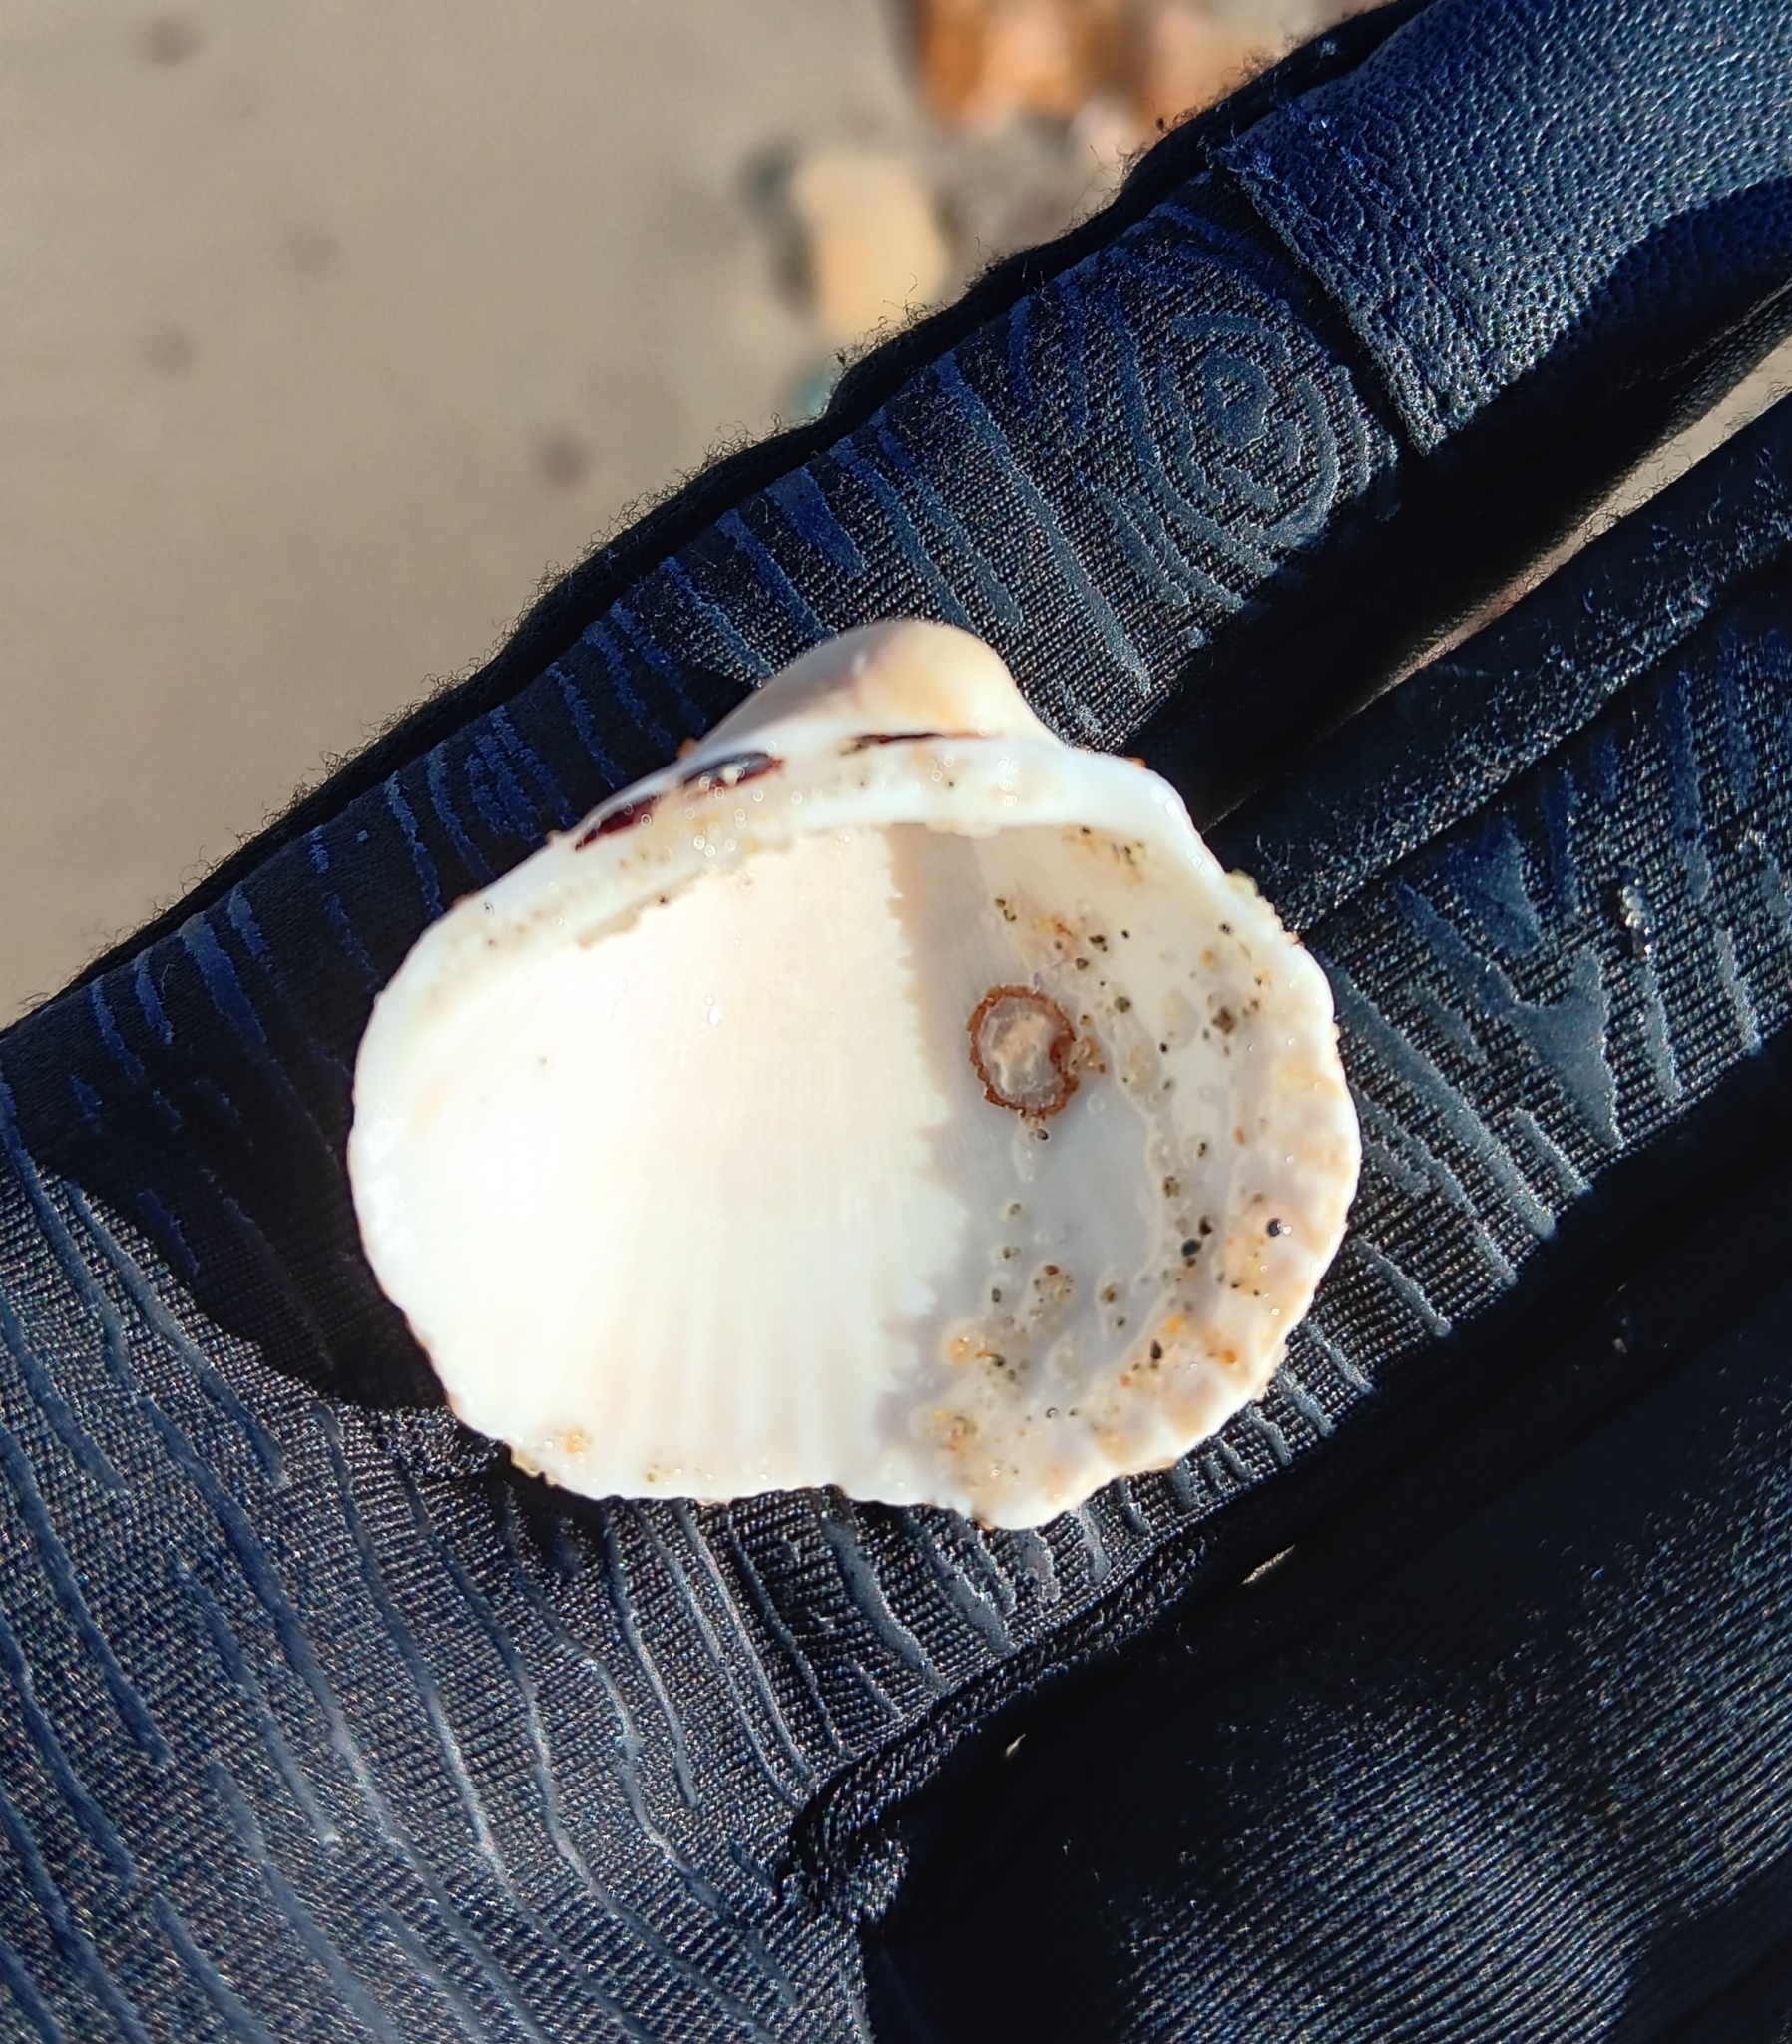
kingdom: Animalia
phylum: Mollusca
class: Bivalvia
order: Arcida
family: Arcidae
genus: Lunarca
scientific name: Lunarca ovalis
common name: Blood ark
